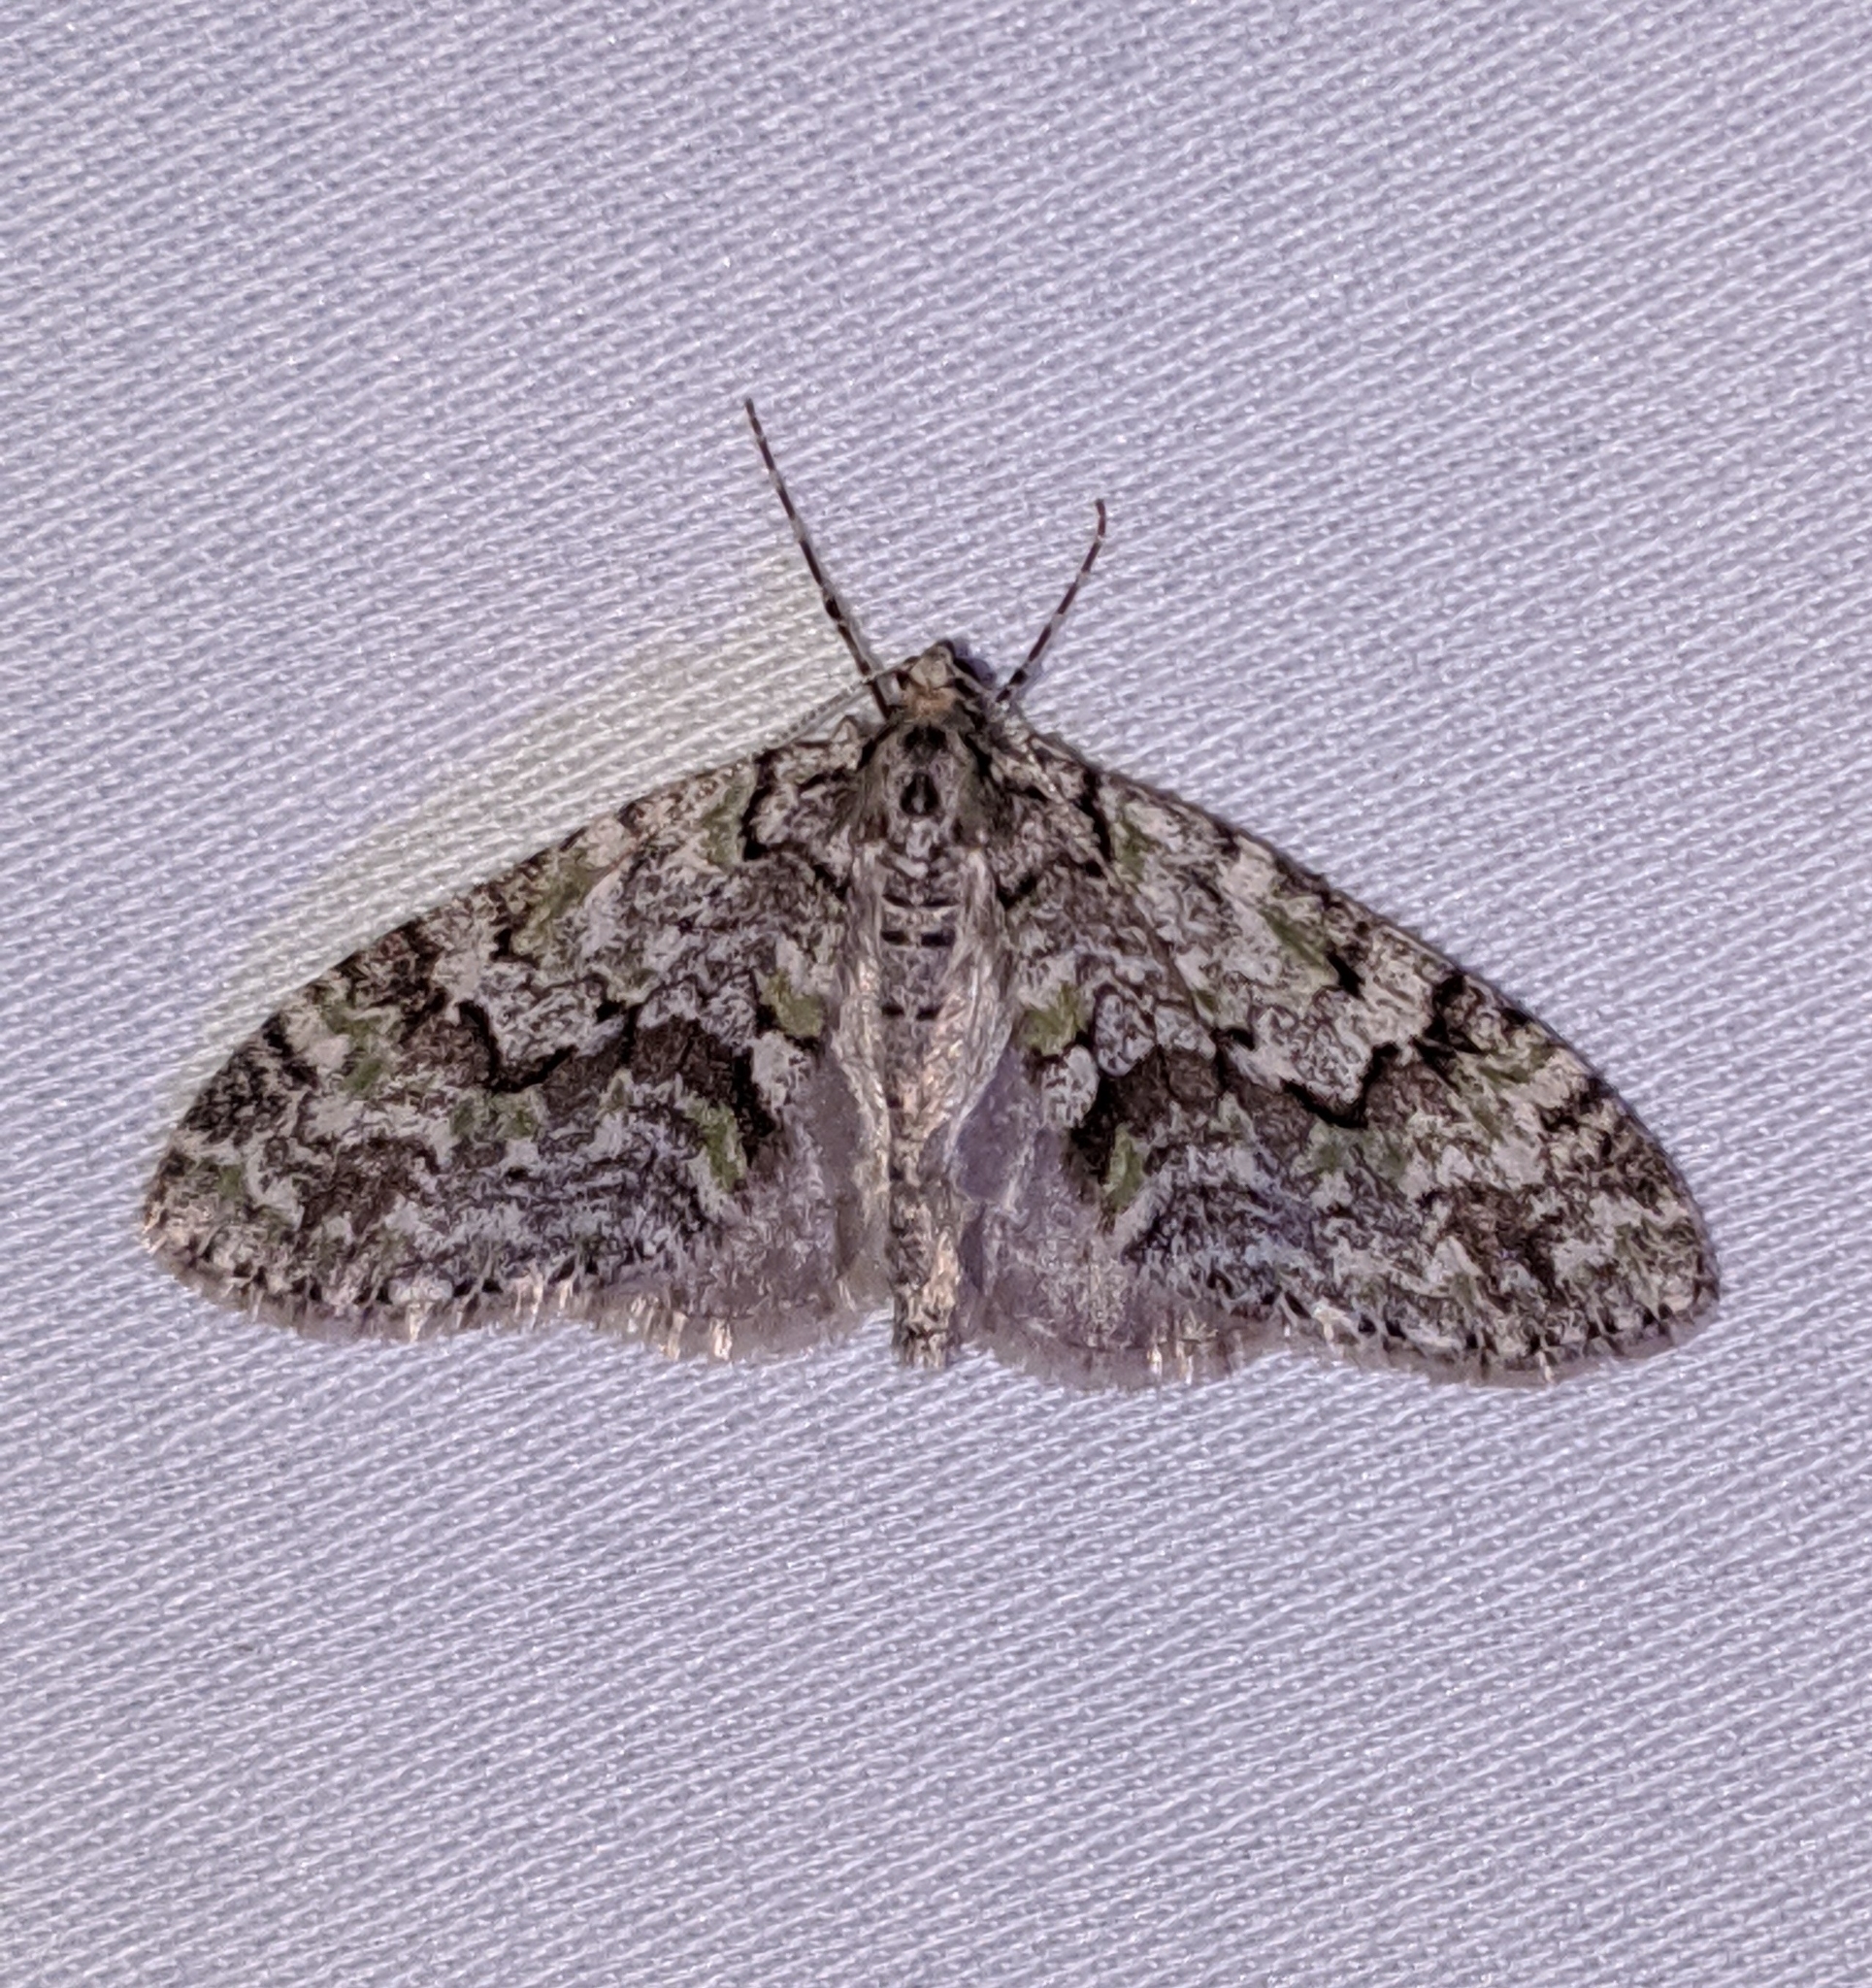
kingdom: Animalia
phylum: Arthropoda
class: Insecta
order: Lepidoptera
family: Geometridae
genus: Cladara
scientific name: Cladara limitaria
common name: Mottled gray carpet
